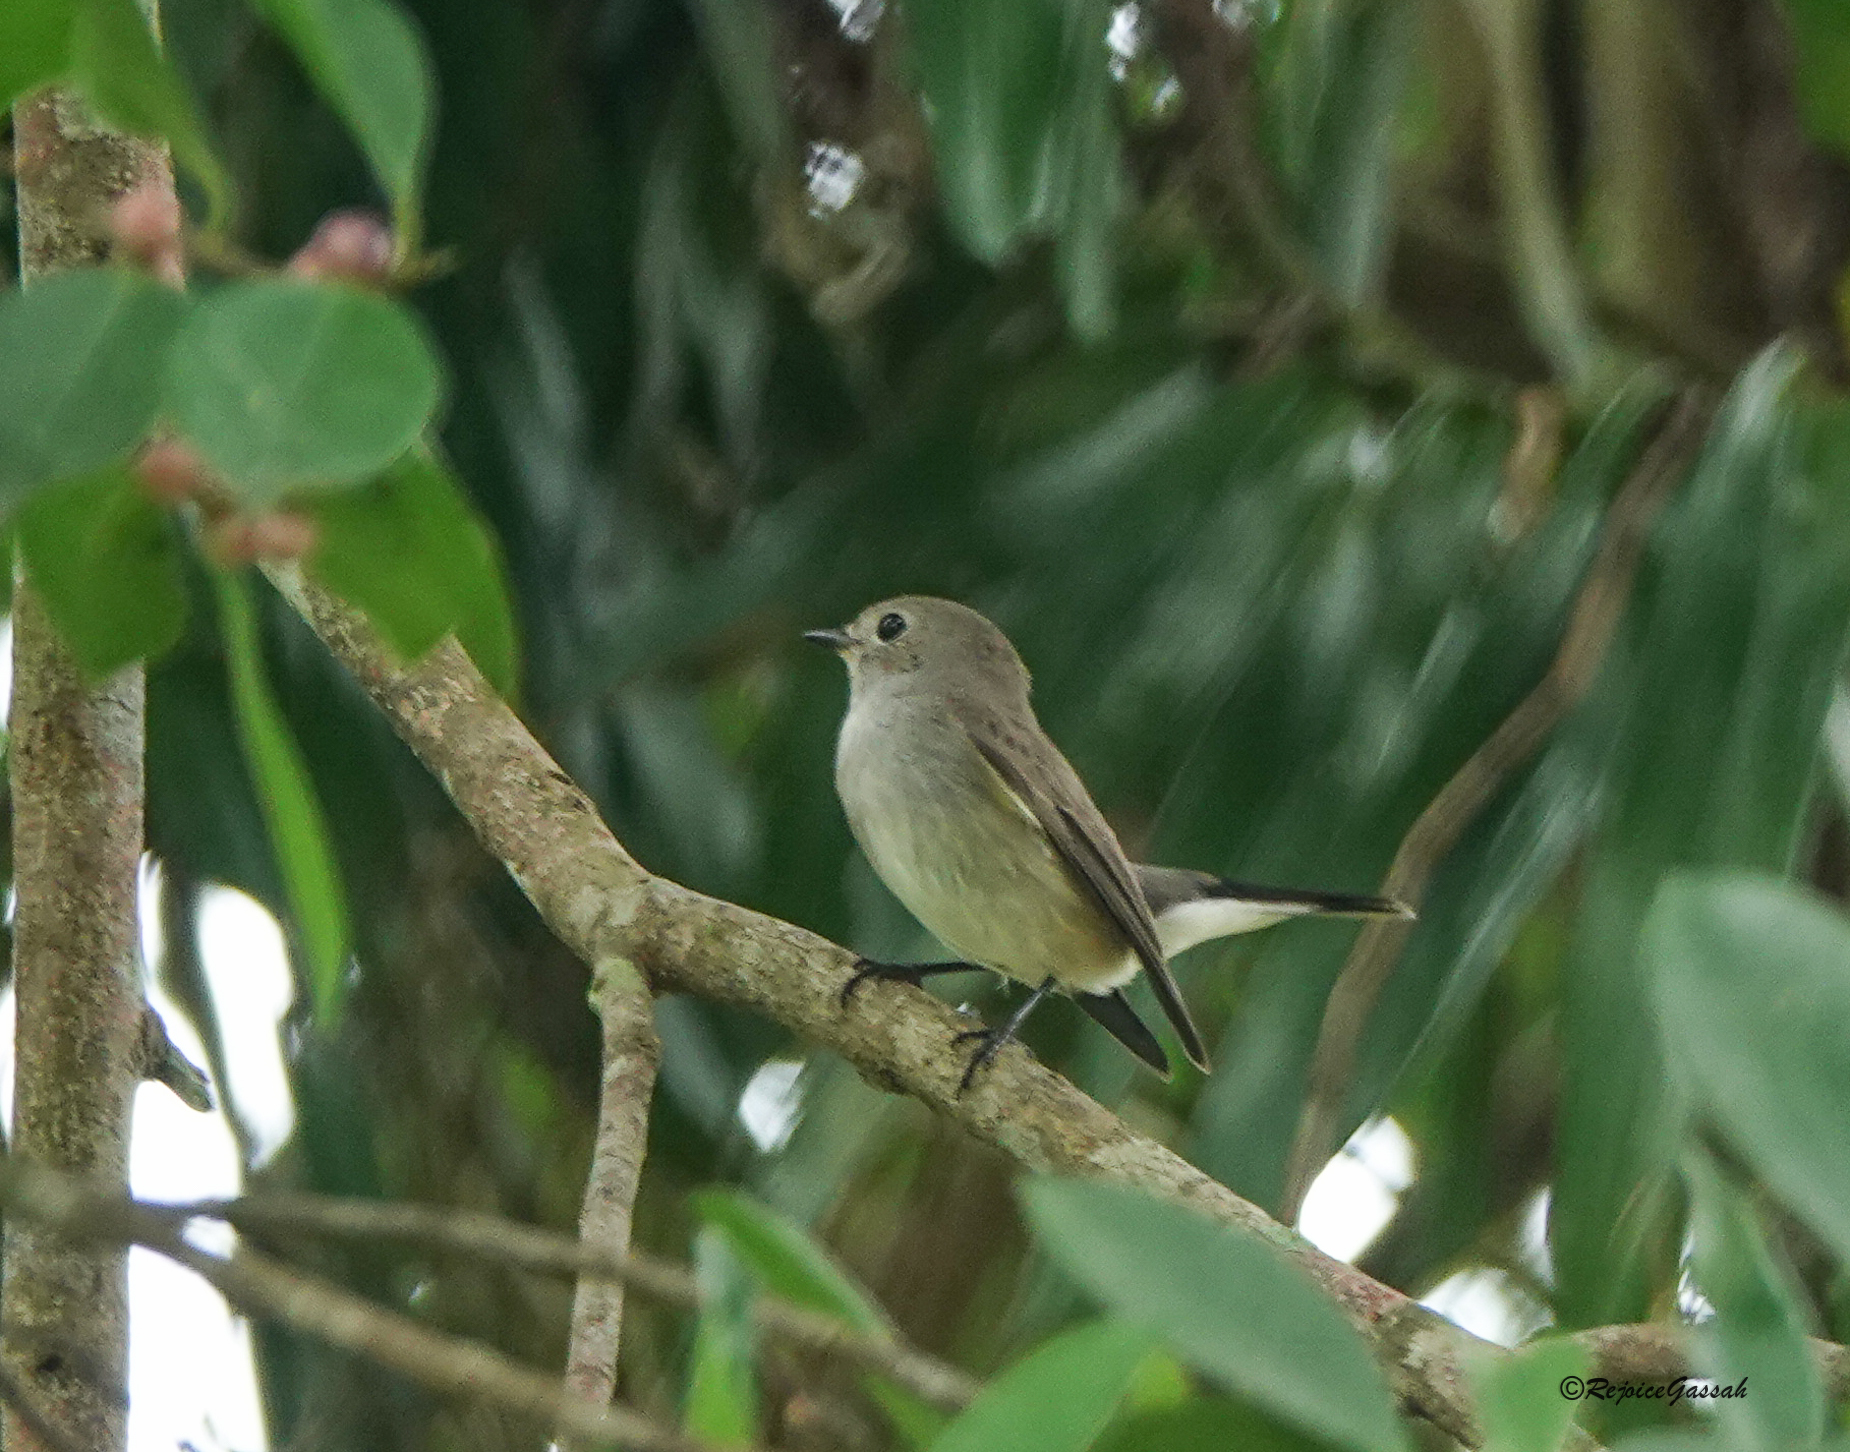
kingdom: Animalia
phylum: Chordata
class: Aves
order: Passeriformes
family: Muscicapidae
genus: Ficedula
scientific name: Ficedula albicilla
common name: Taiga flycatcher
